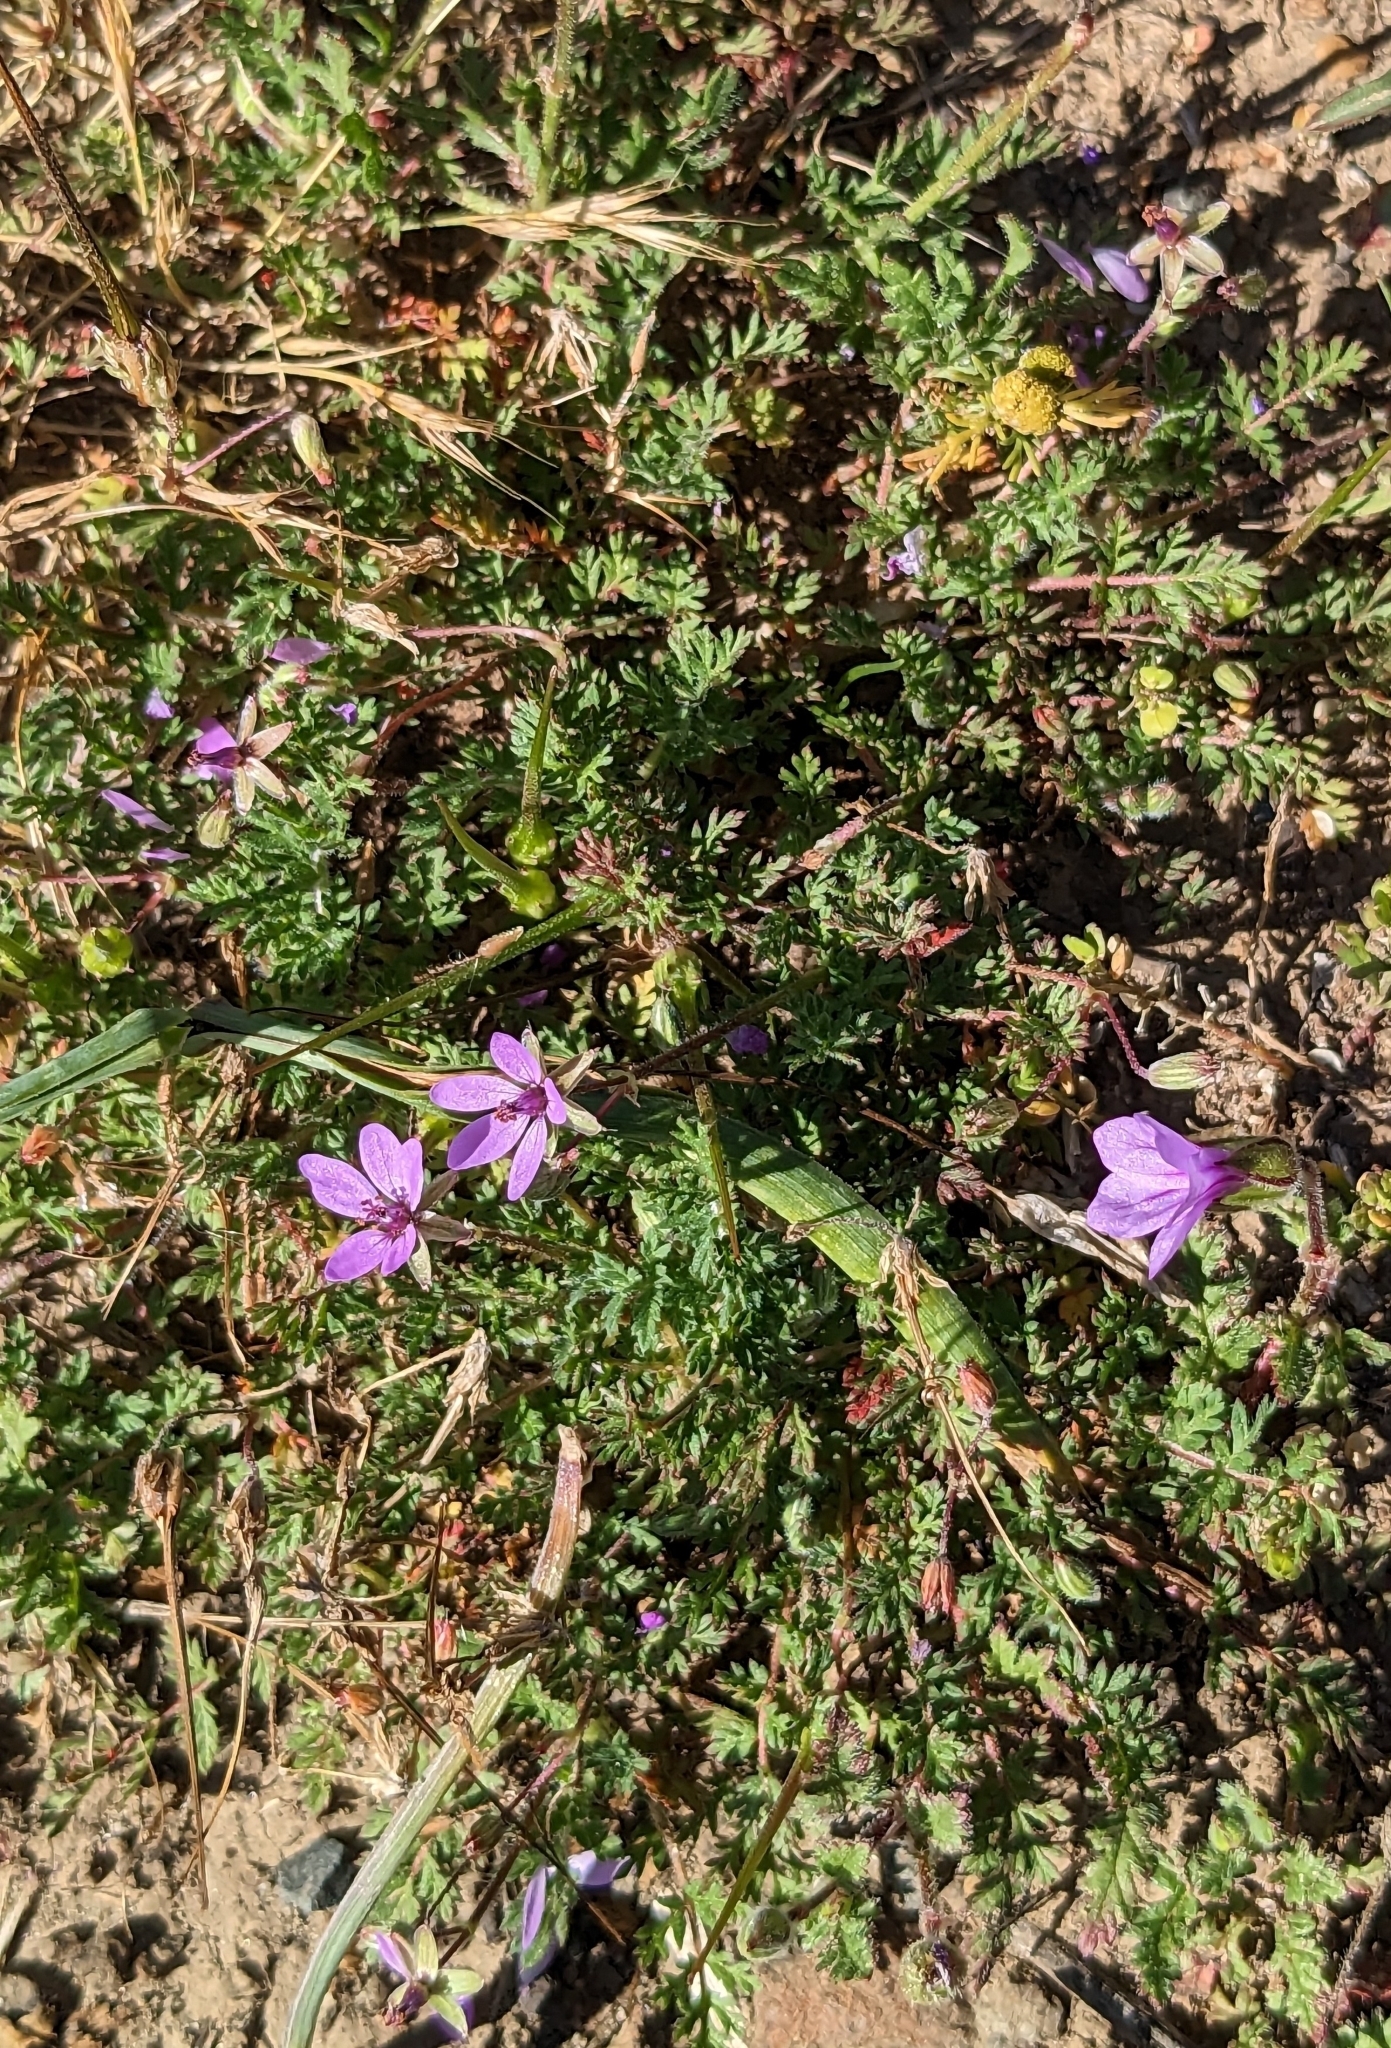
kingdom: Plantae
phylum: Tracheophyta
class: Magnoliopsida
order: Geraniales
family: Geraniaceae
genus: Erodium
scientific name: Erodium cicutarium
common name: Common stork's-bill
